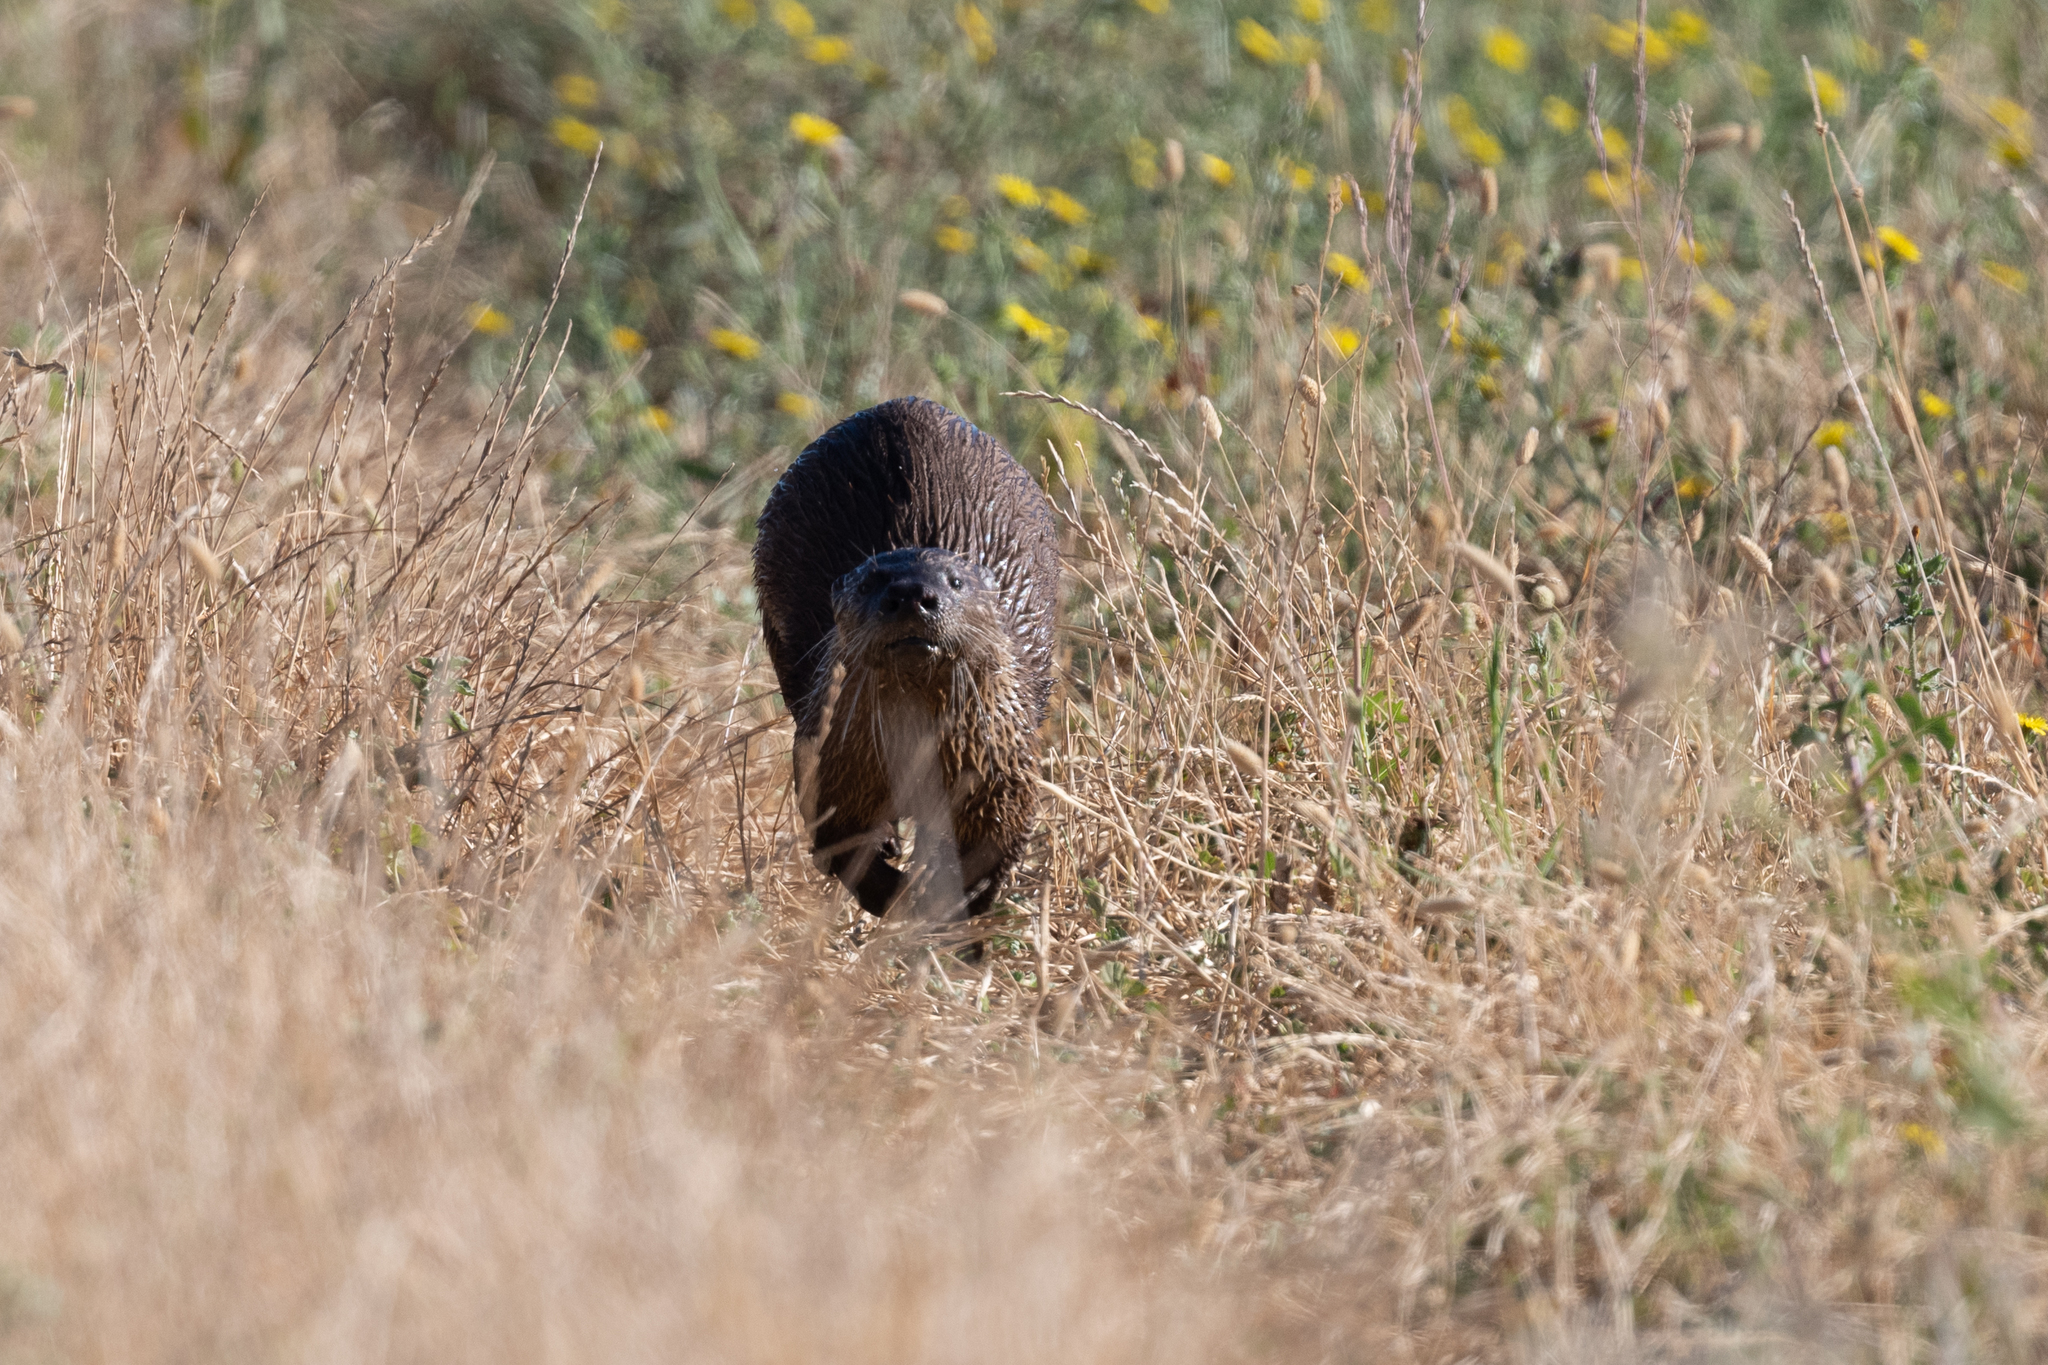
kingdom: Animalia
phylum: Chordata
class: Mammalia
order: Carnivora
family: Mustelidae
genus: Lontra
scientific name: Lontra canadensis
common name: North american river otter
